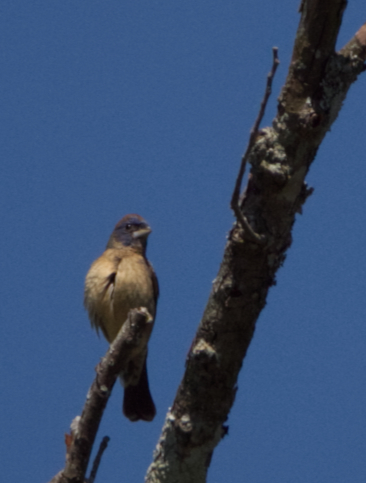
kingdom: Animalia
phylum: Chordata
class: Aves
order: Passeriformes
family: Cardinalidae
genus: Passerina
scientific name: Passerina caerulea
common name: Blue grosbeak
